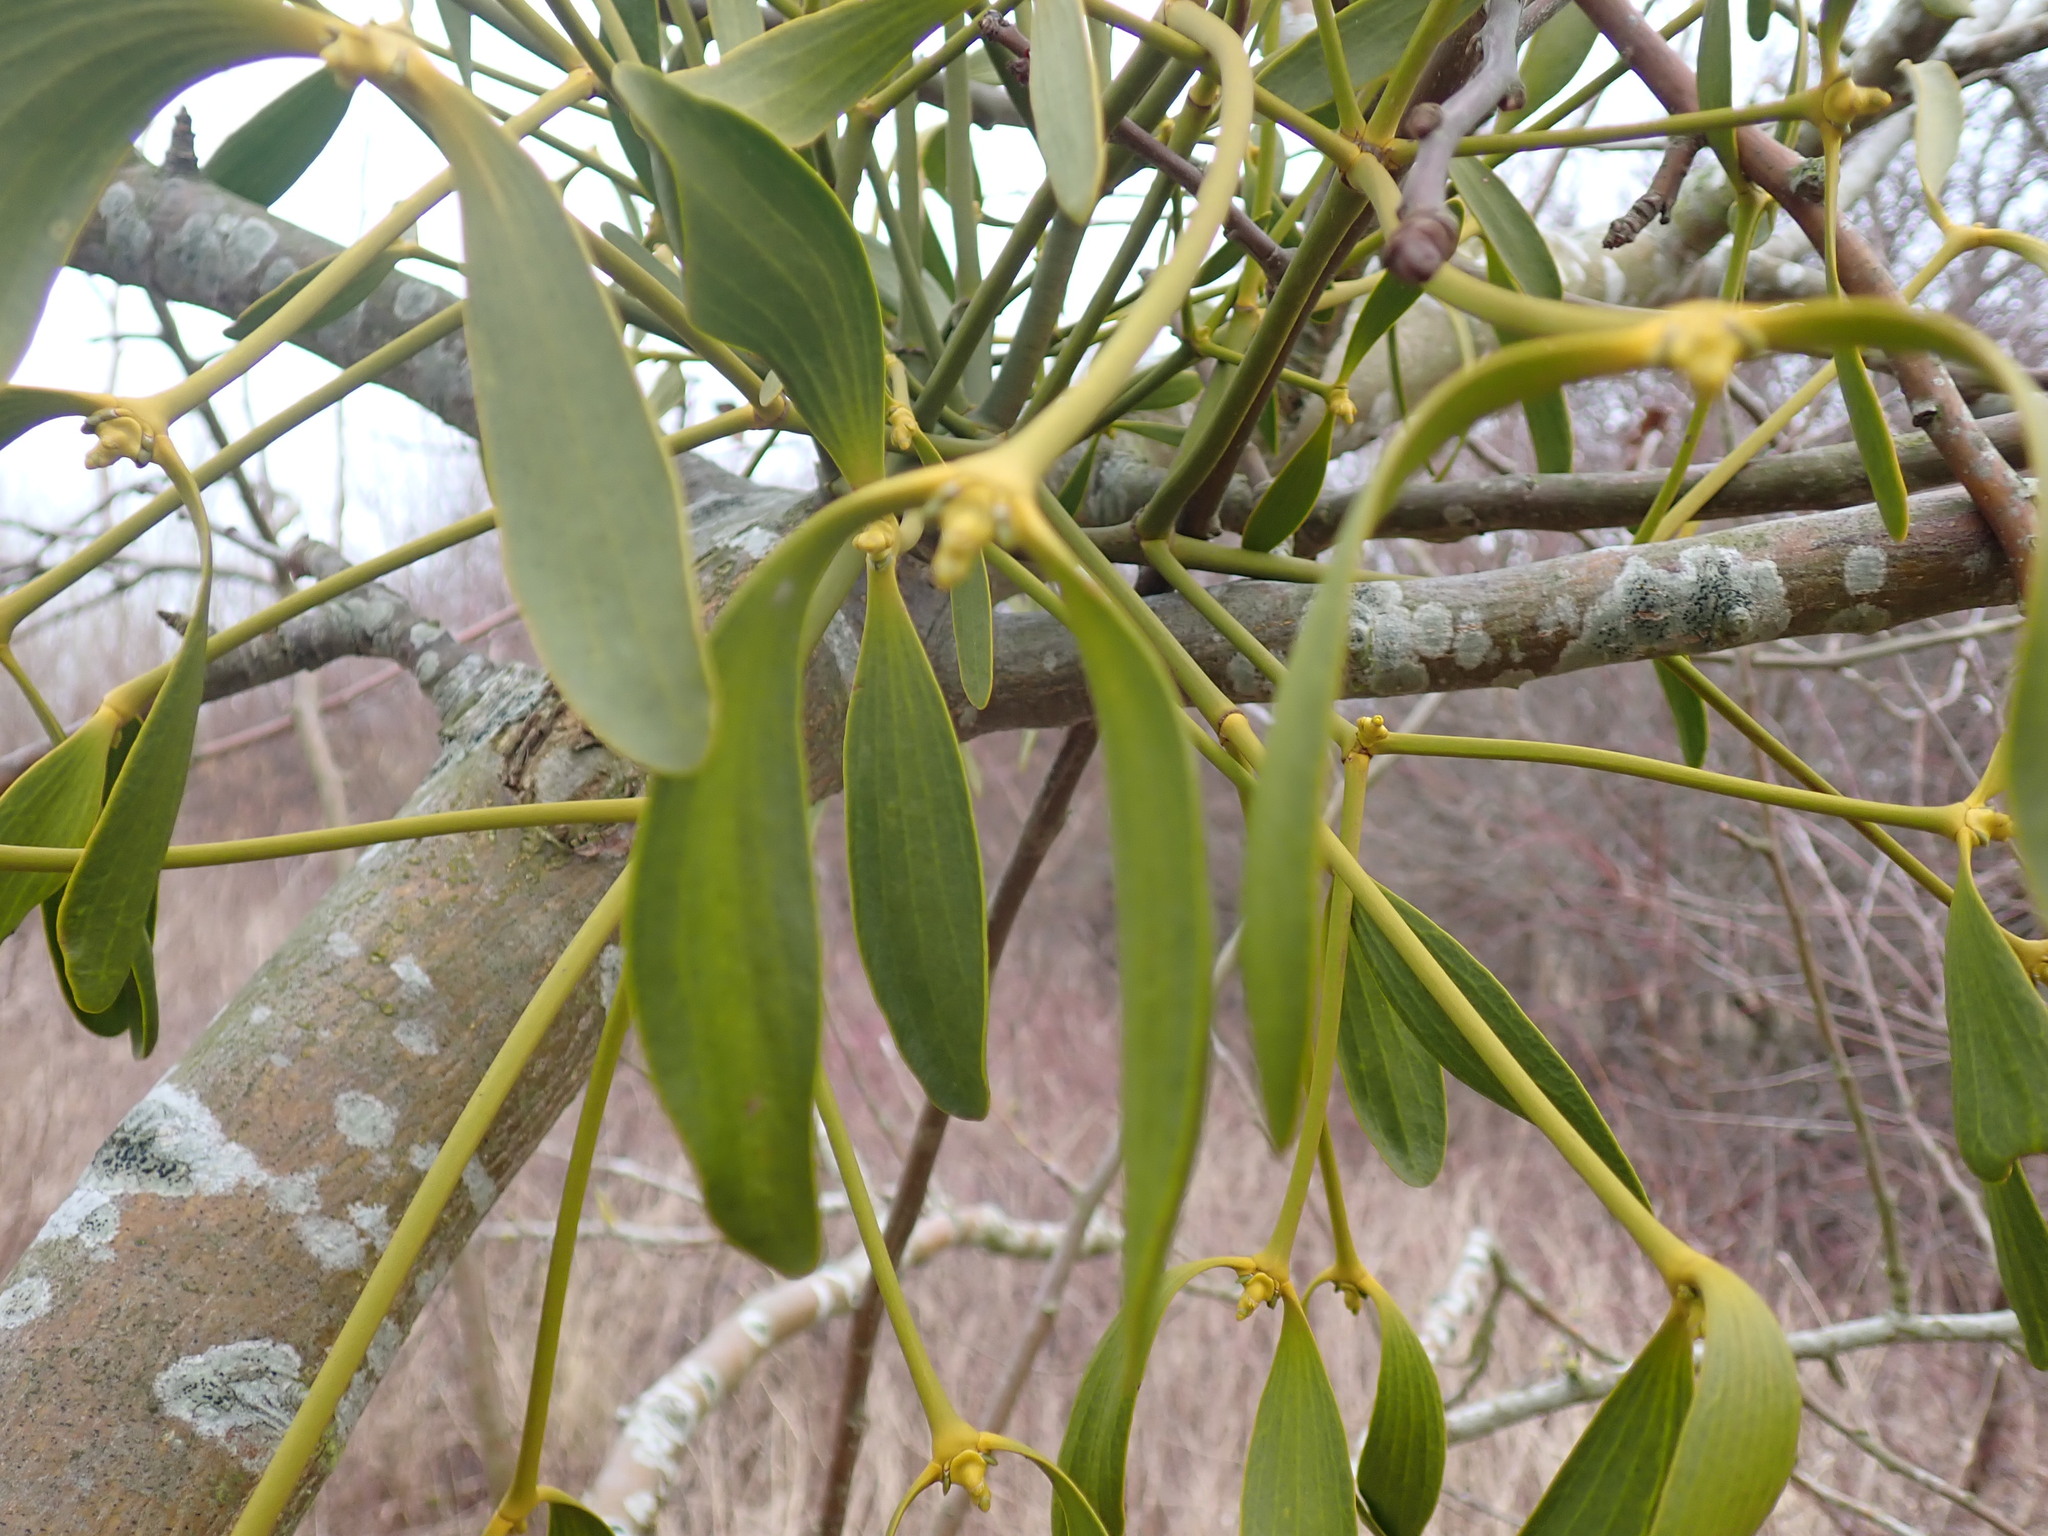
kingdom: Plantae
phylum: Tracheophyta
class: Magnoliopsida
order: Santalales
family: Viscaceae
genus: Viscum
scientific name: Viscum album
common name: Mistletoe
